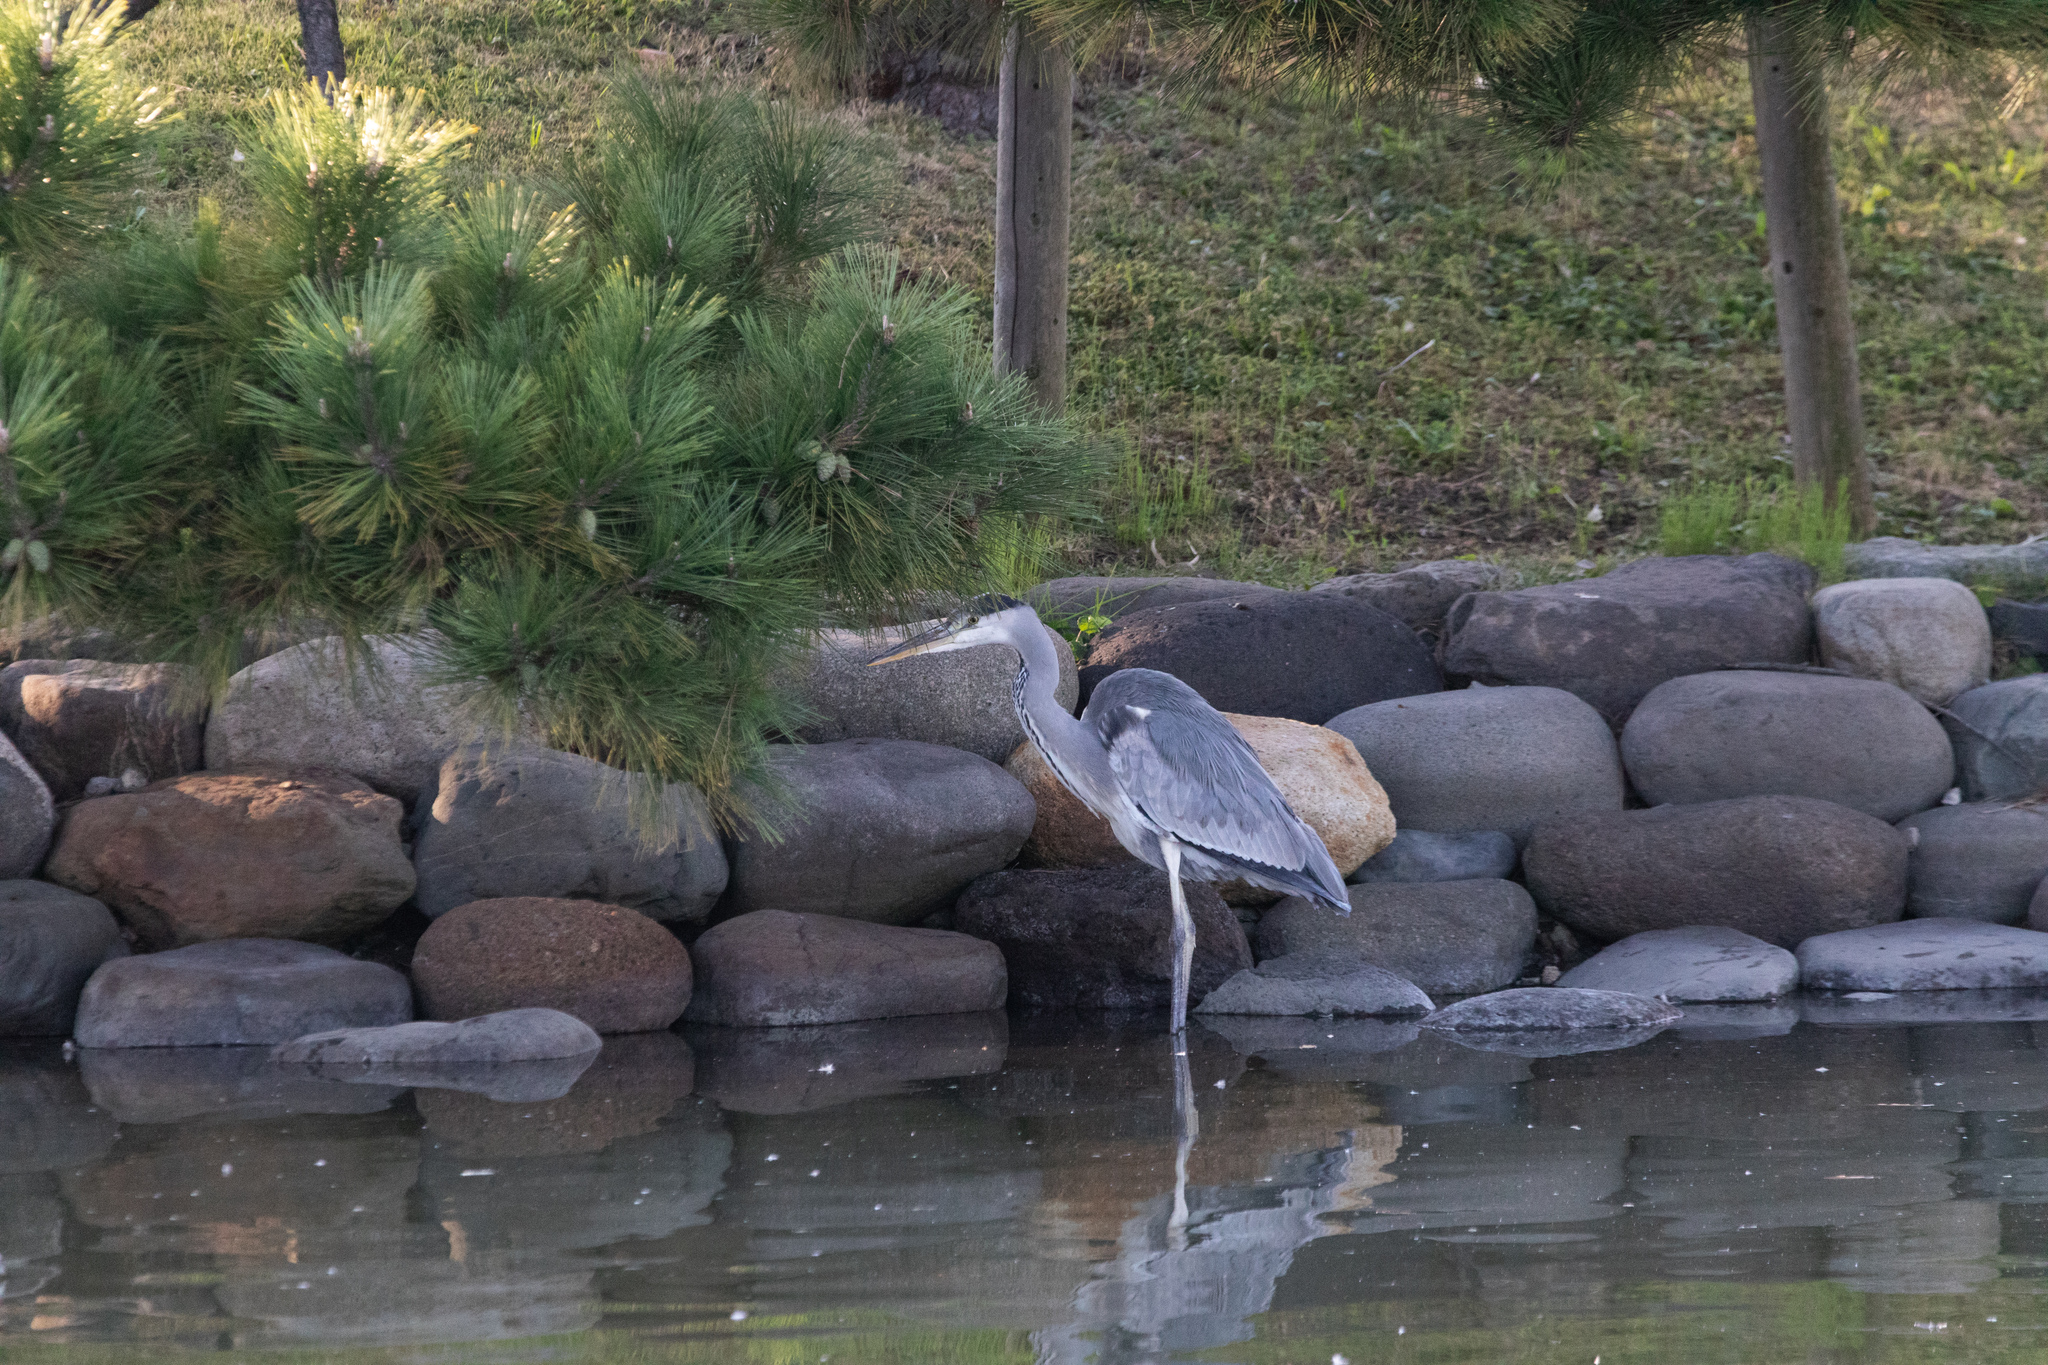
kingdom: Animalia
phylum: Chordata
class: Aves
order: Pelecaniformes
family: Ardeidae
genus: Ardea
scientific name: Ardea cinerea
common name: Grey heron
